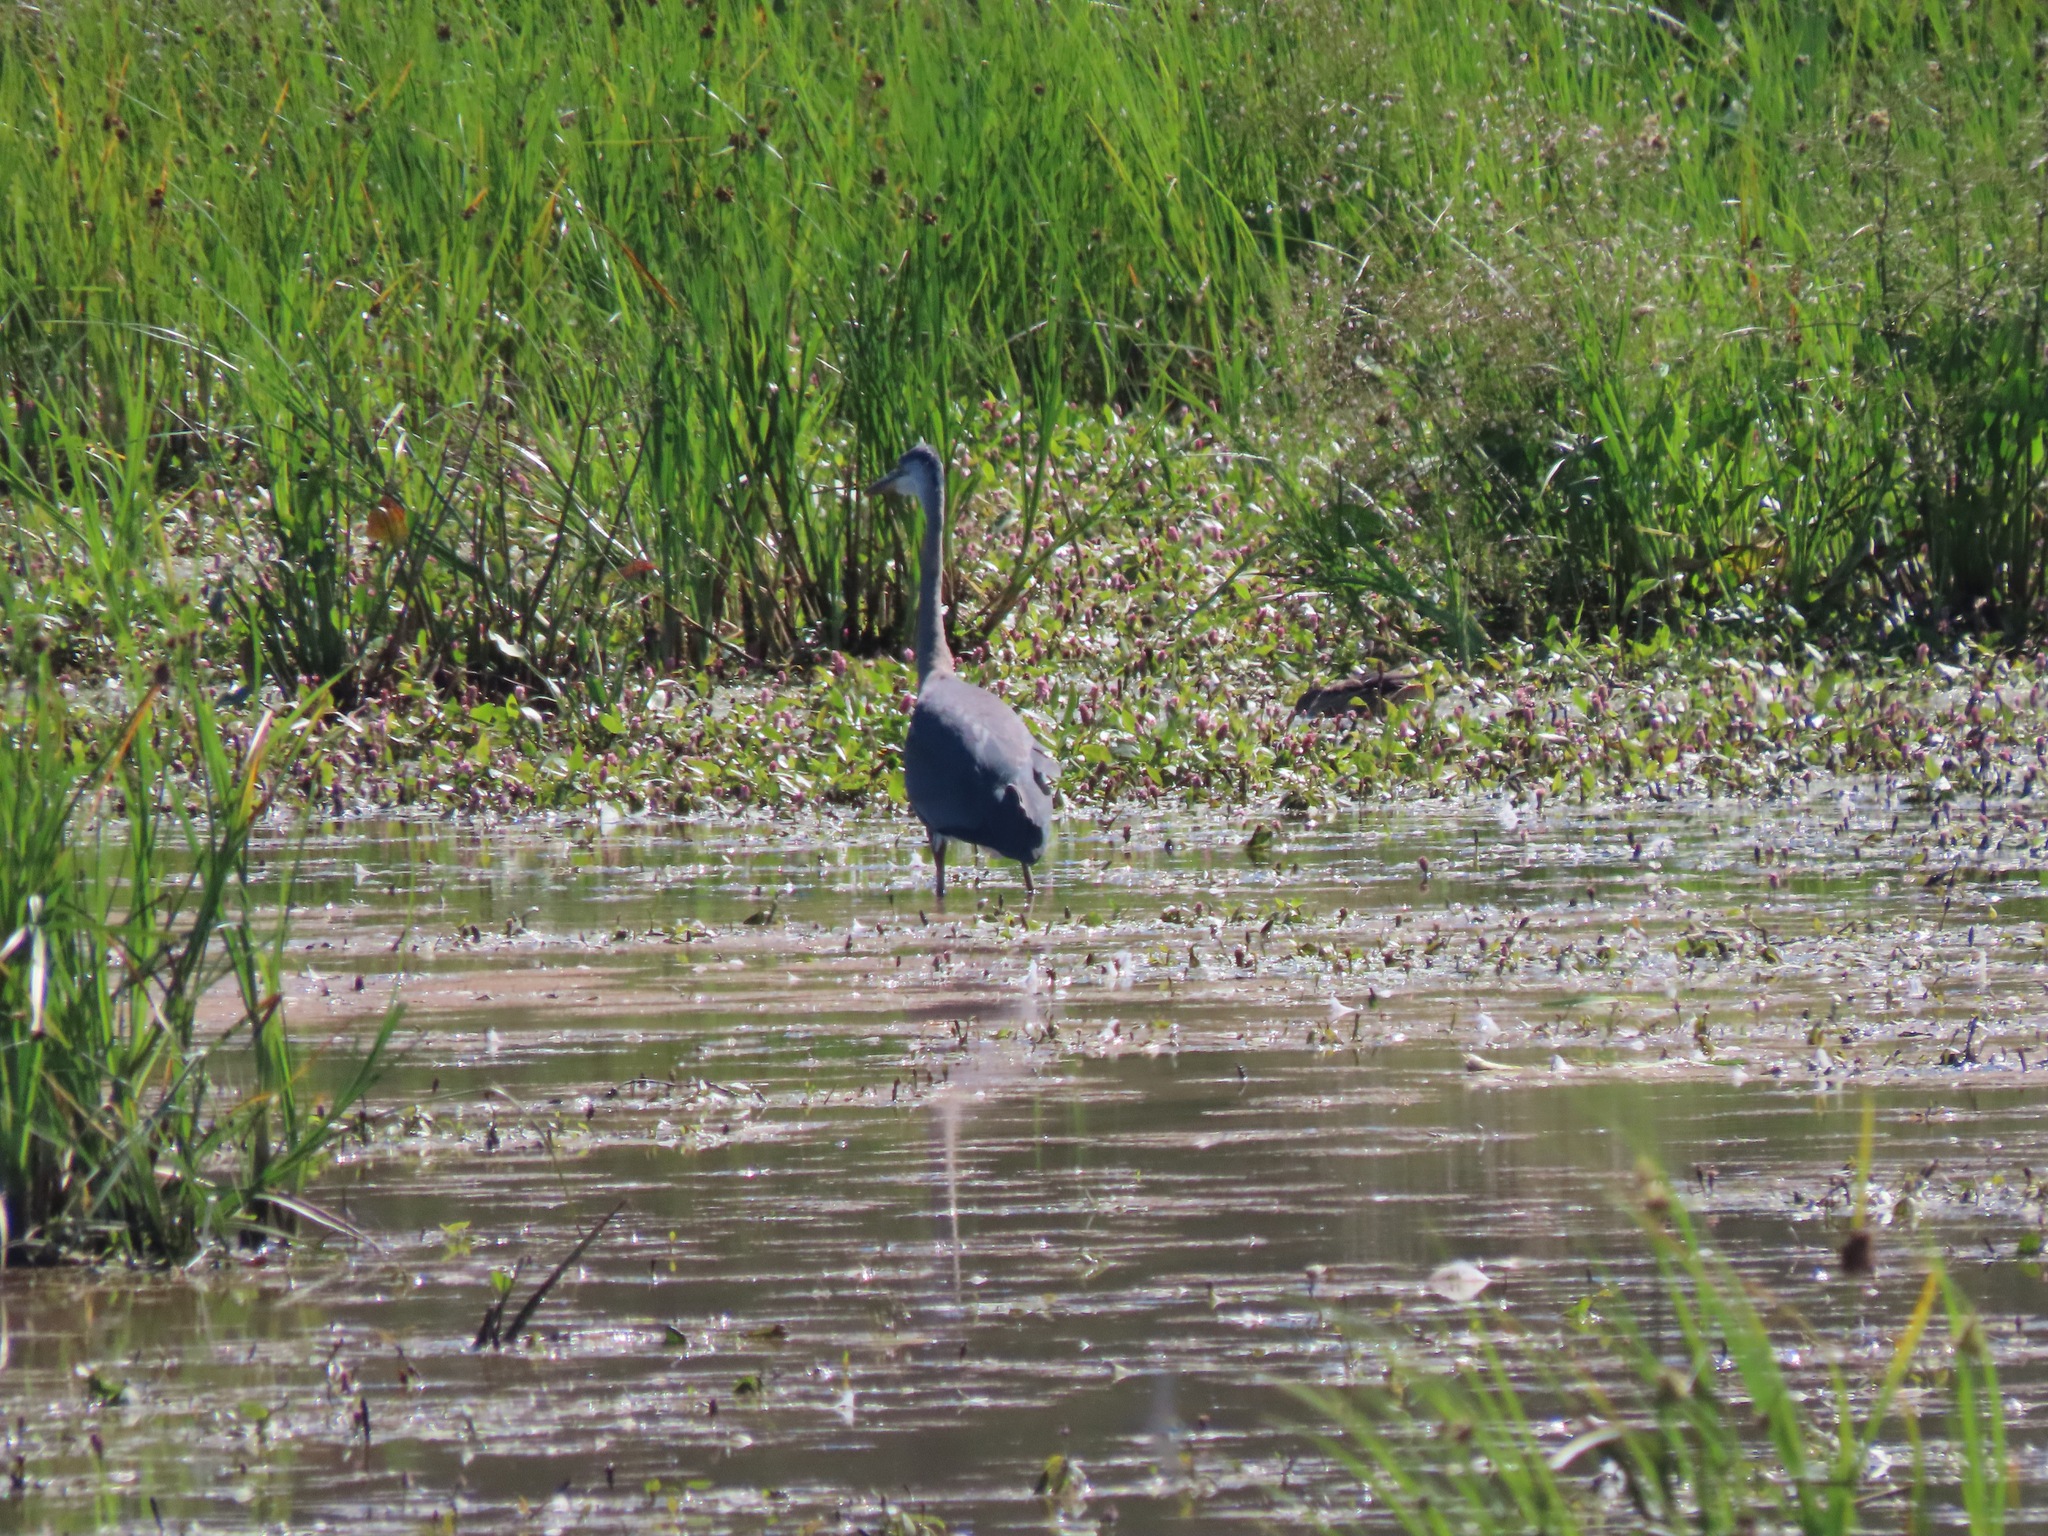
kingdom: Animalia
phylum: Chordata
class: Aves
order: Pelecaniformes
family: Ardeidae
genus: Ardea
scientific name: Ardea herodias
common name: Great blue heron
